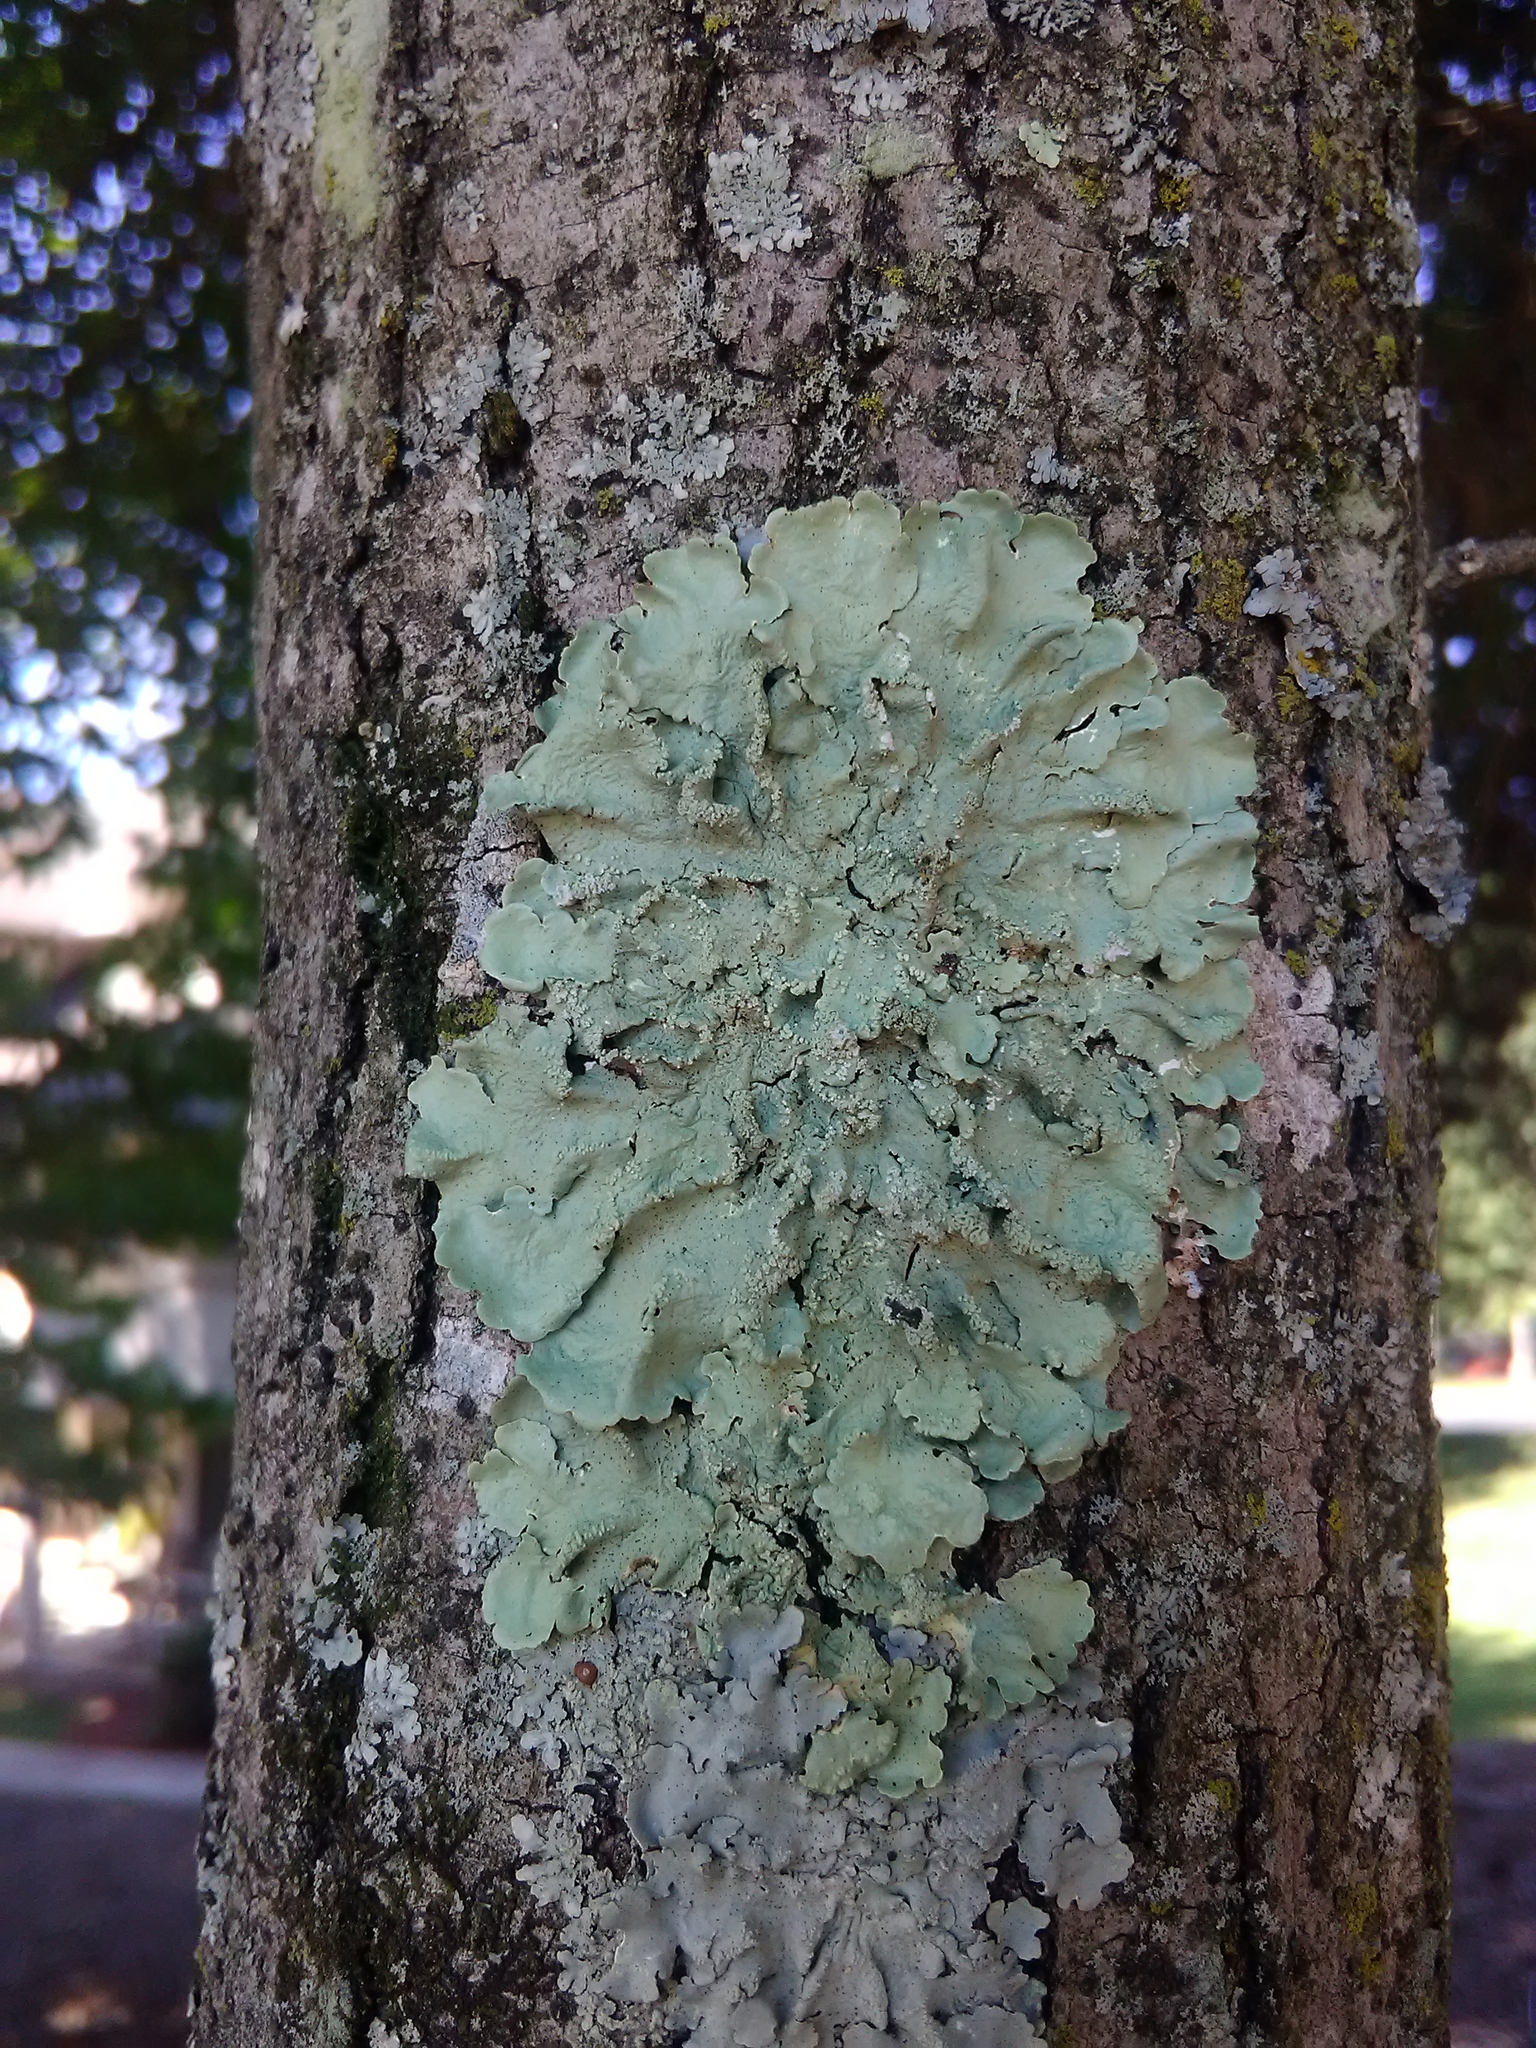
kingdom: Fungi
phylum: Ascomycota
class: Lecanoromycetes
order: Lecanorales
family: Parmeliaceae
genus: Flavoparmelia
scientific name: Flavoparmelia caperata
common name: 40-mile per hour lichen
